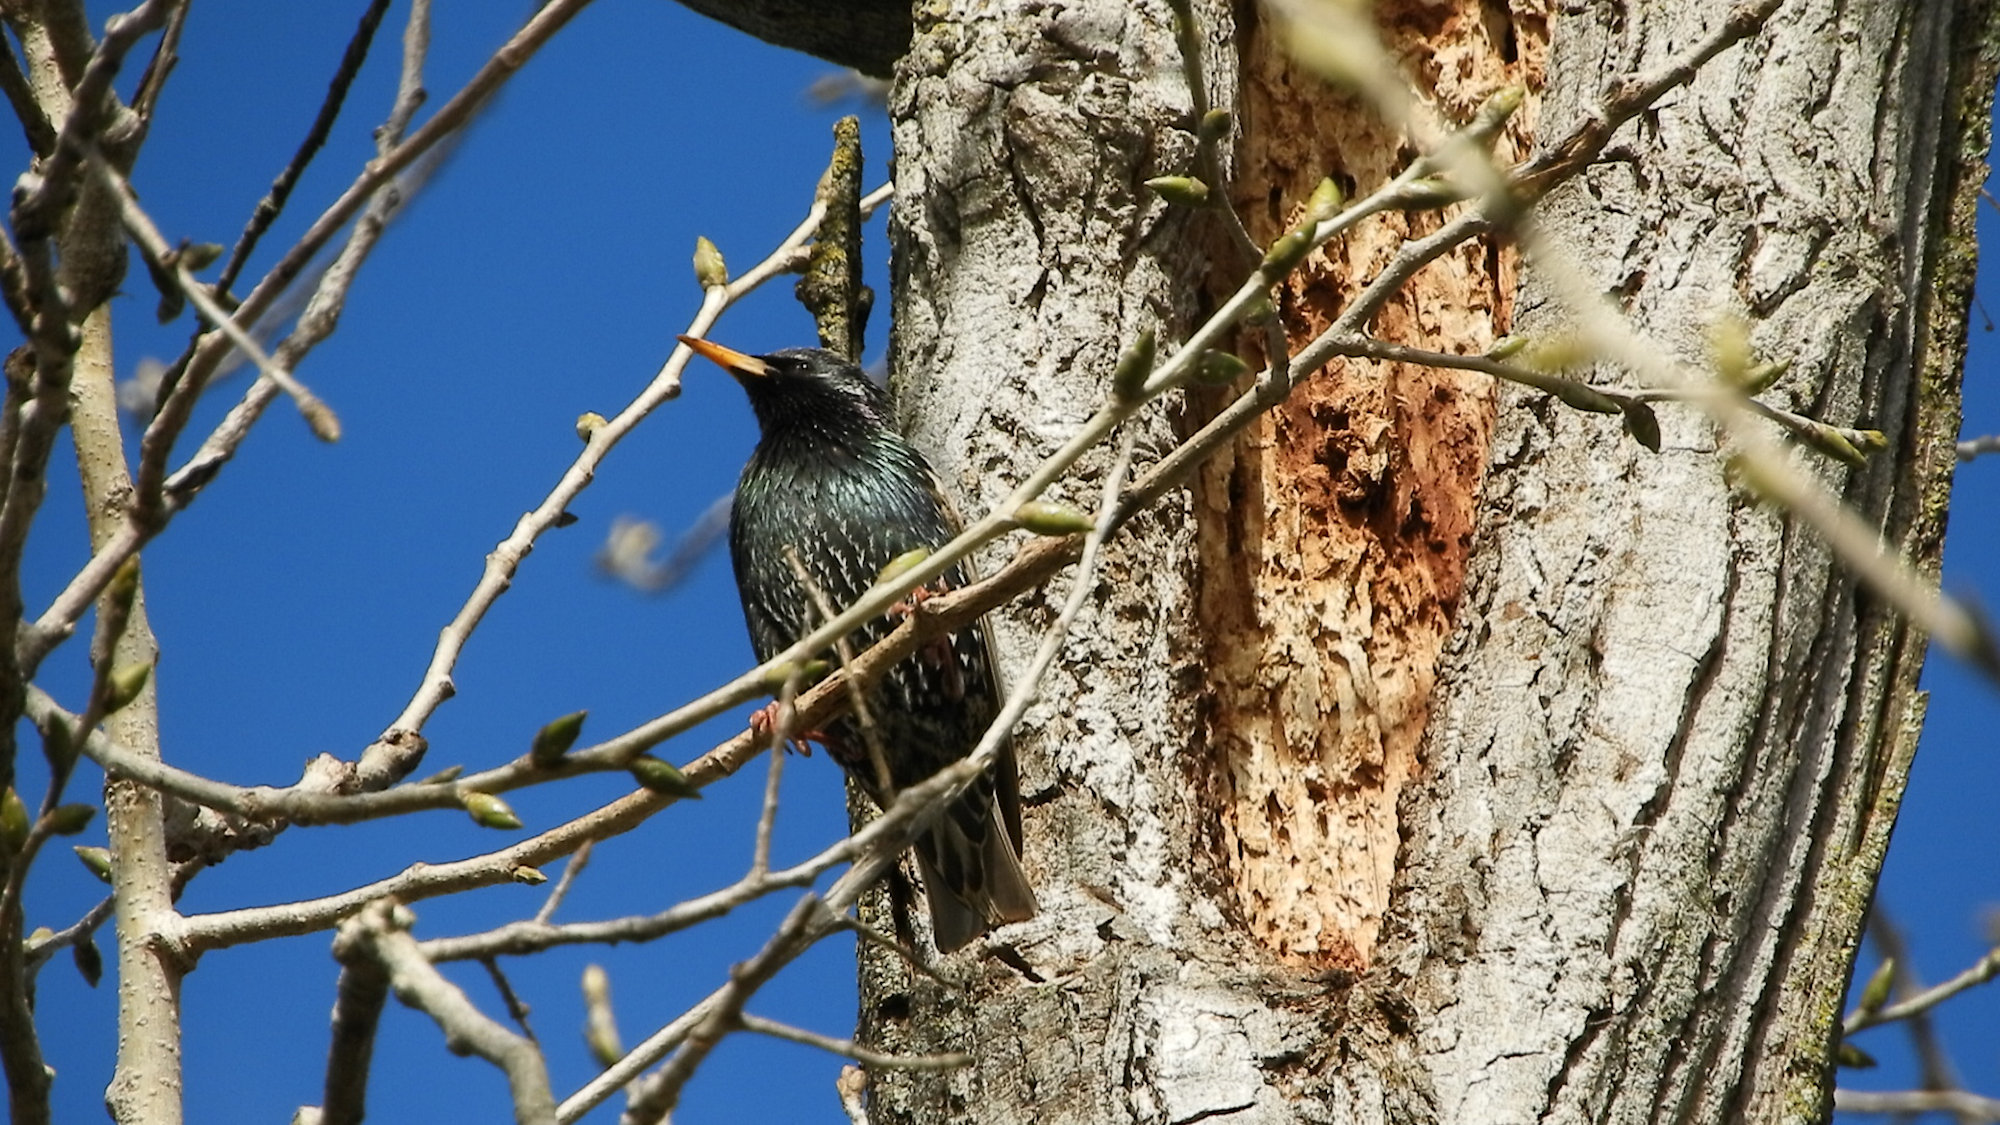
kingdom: Animalia
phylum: Chordata
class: Aves
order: Passeriformes
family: Sturnidae
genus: Sturnus
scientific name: Sturnus vulgaris
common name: Common starling
